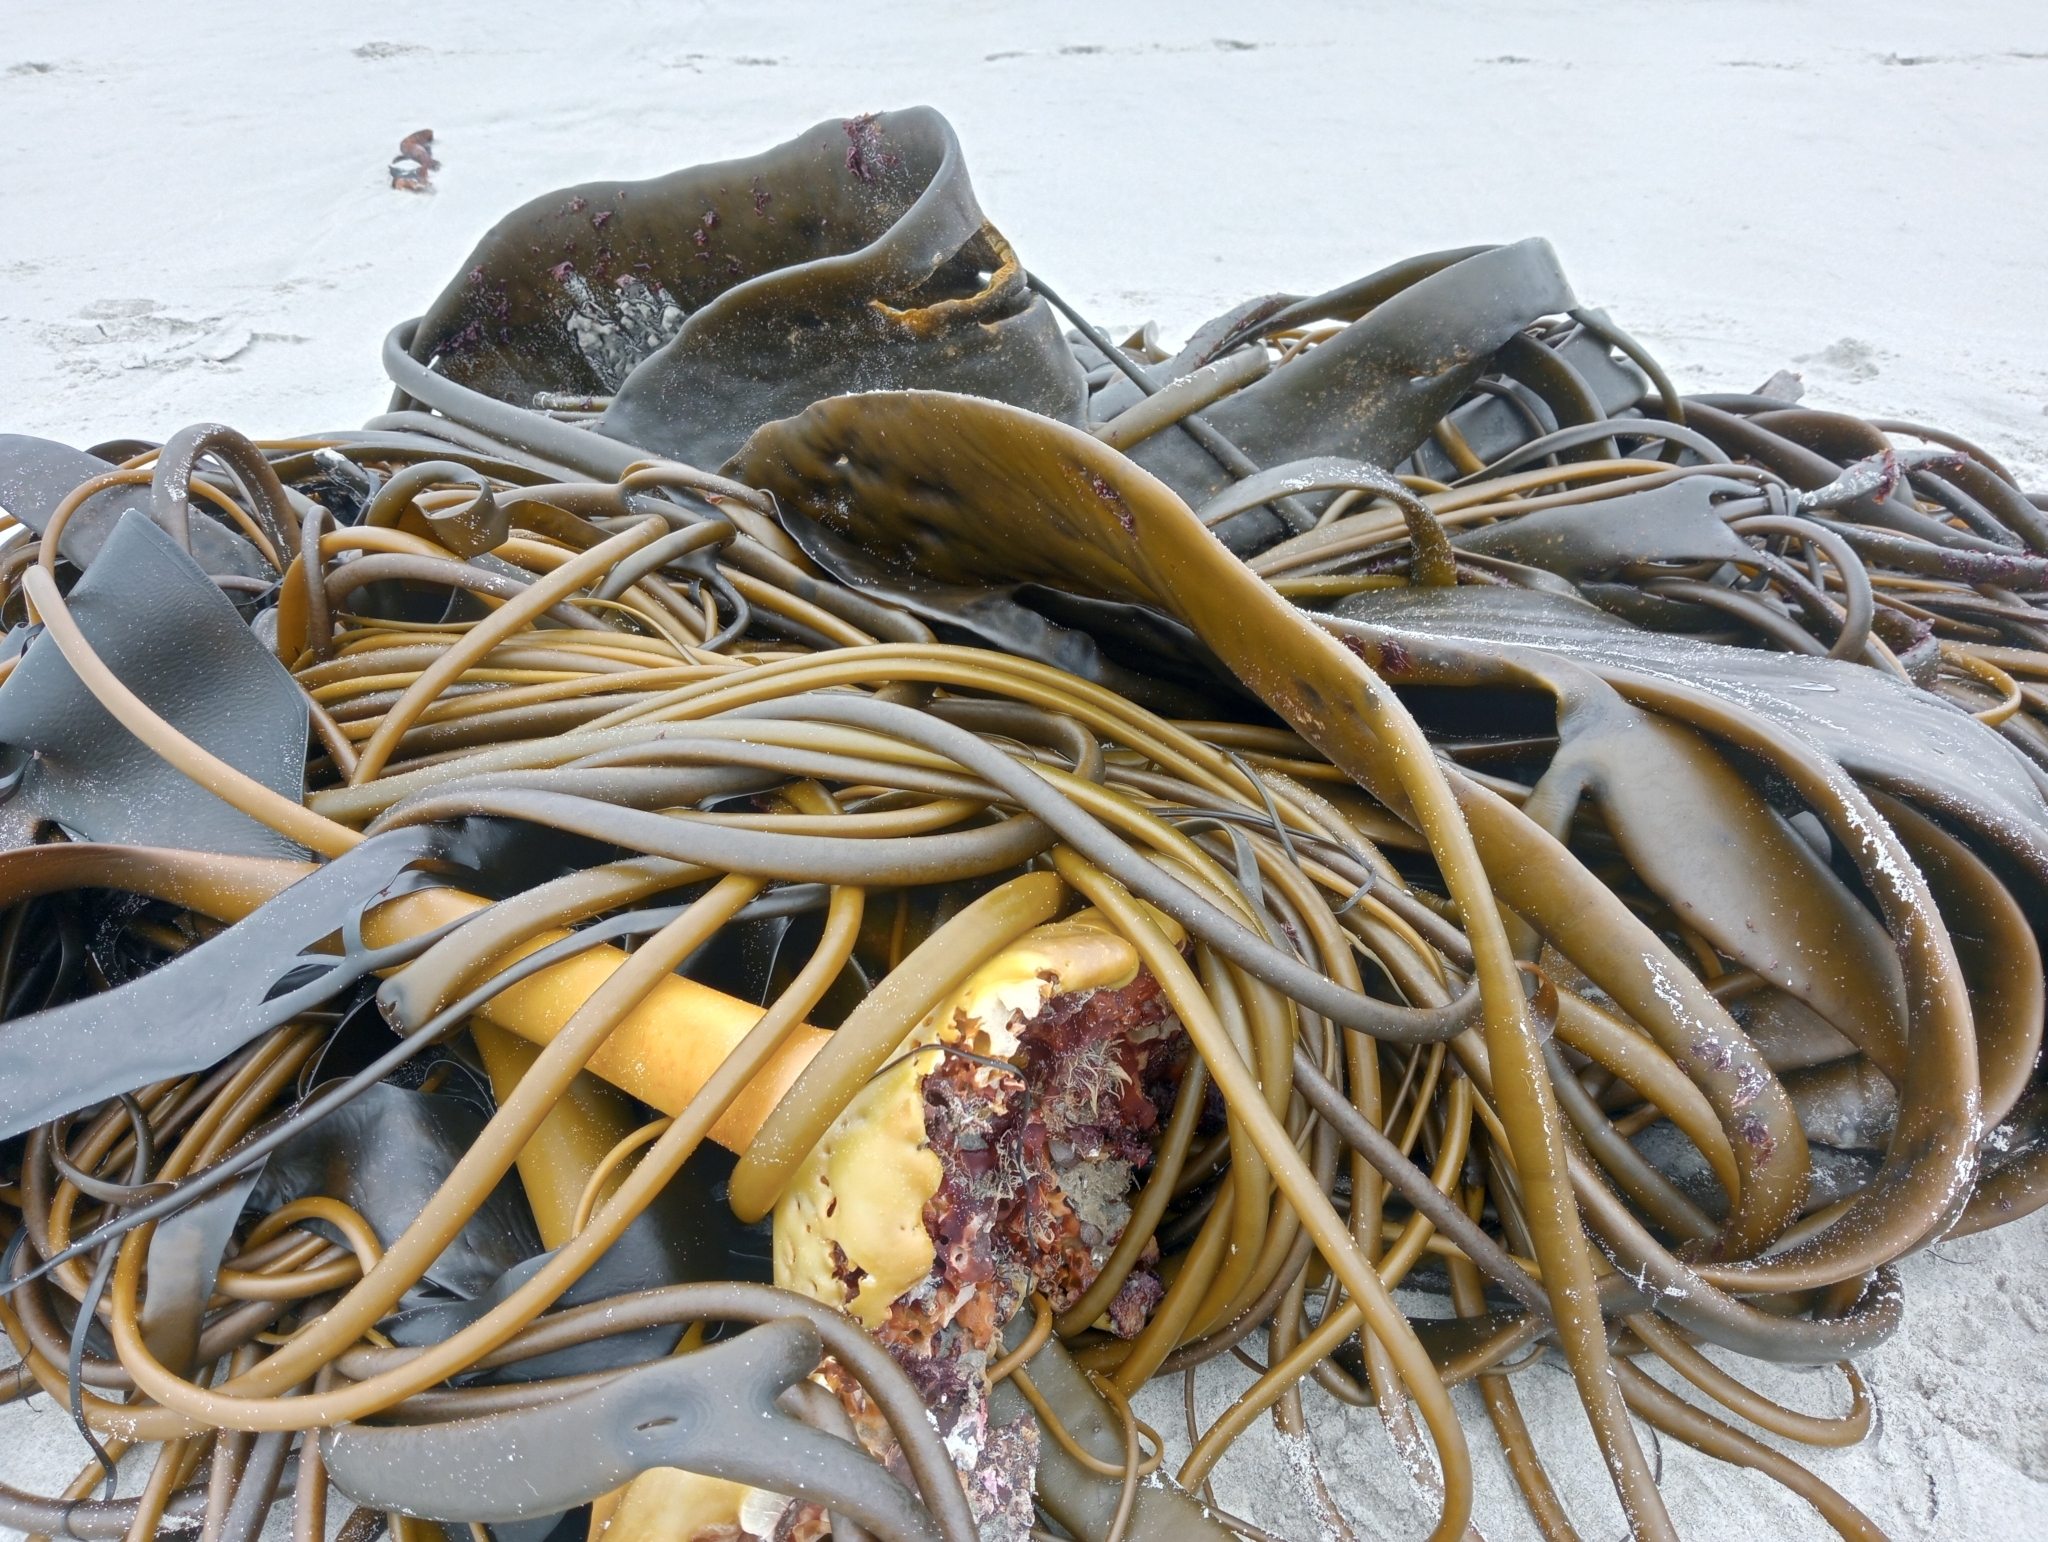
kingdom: Chromista
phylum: Ochrophyta
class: Phaeophyceae
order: Fucales
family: Durvillaeaceae
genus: Durvillaea
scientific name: Durvillaea antarctica
